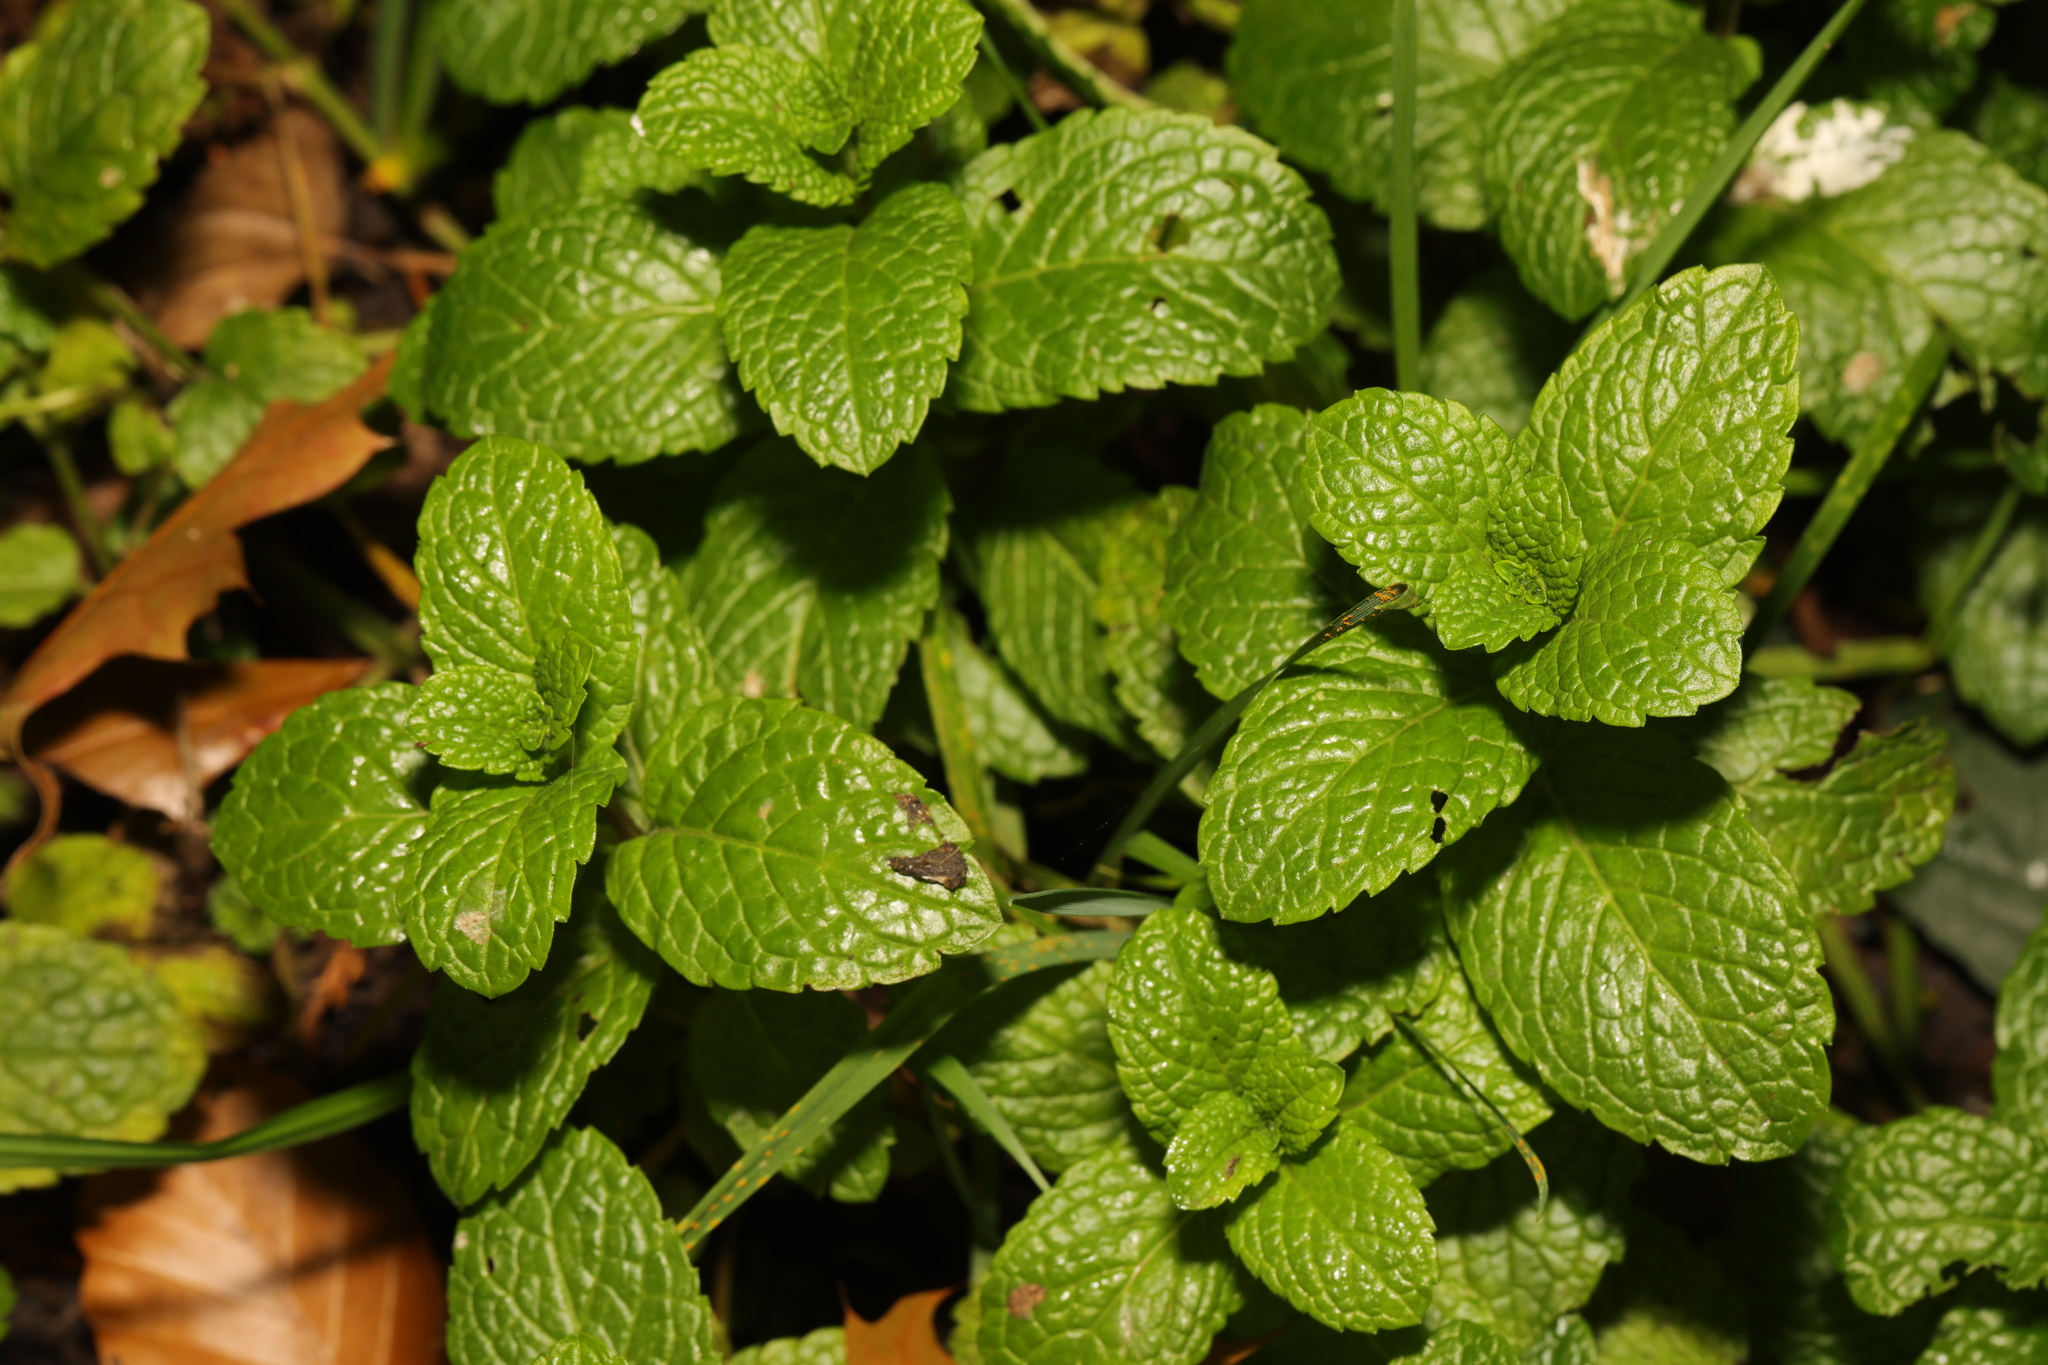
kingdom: Plantae
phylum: Tracheophyta
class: Magnoliopsida
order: Lamiales
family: Lamiaceae
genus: Mentha
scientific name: Mentha spicata
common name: Spearmint
